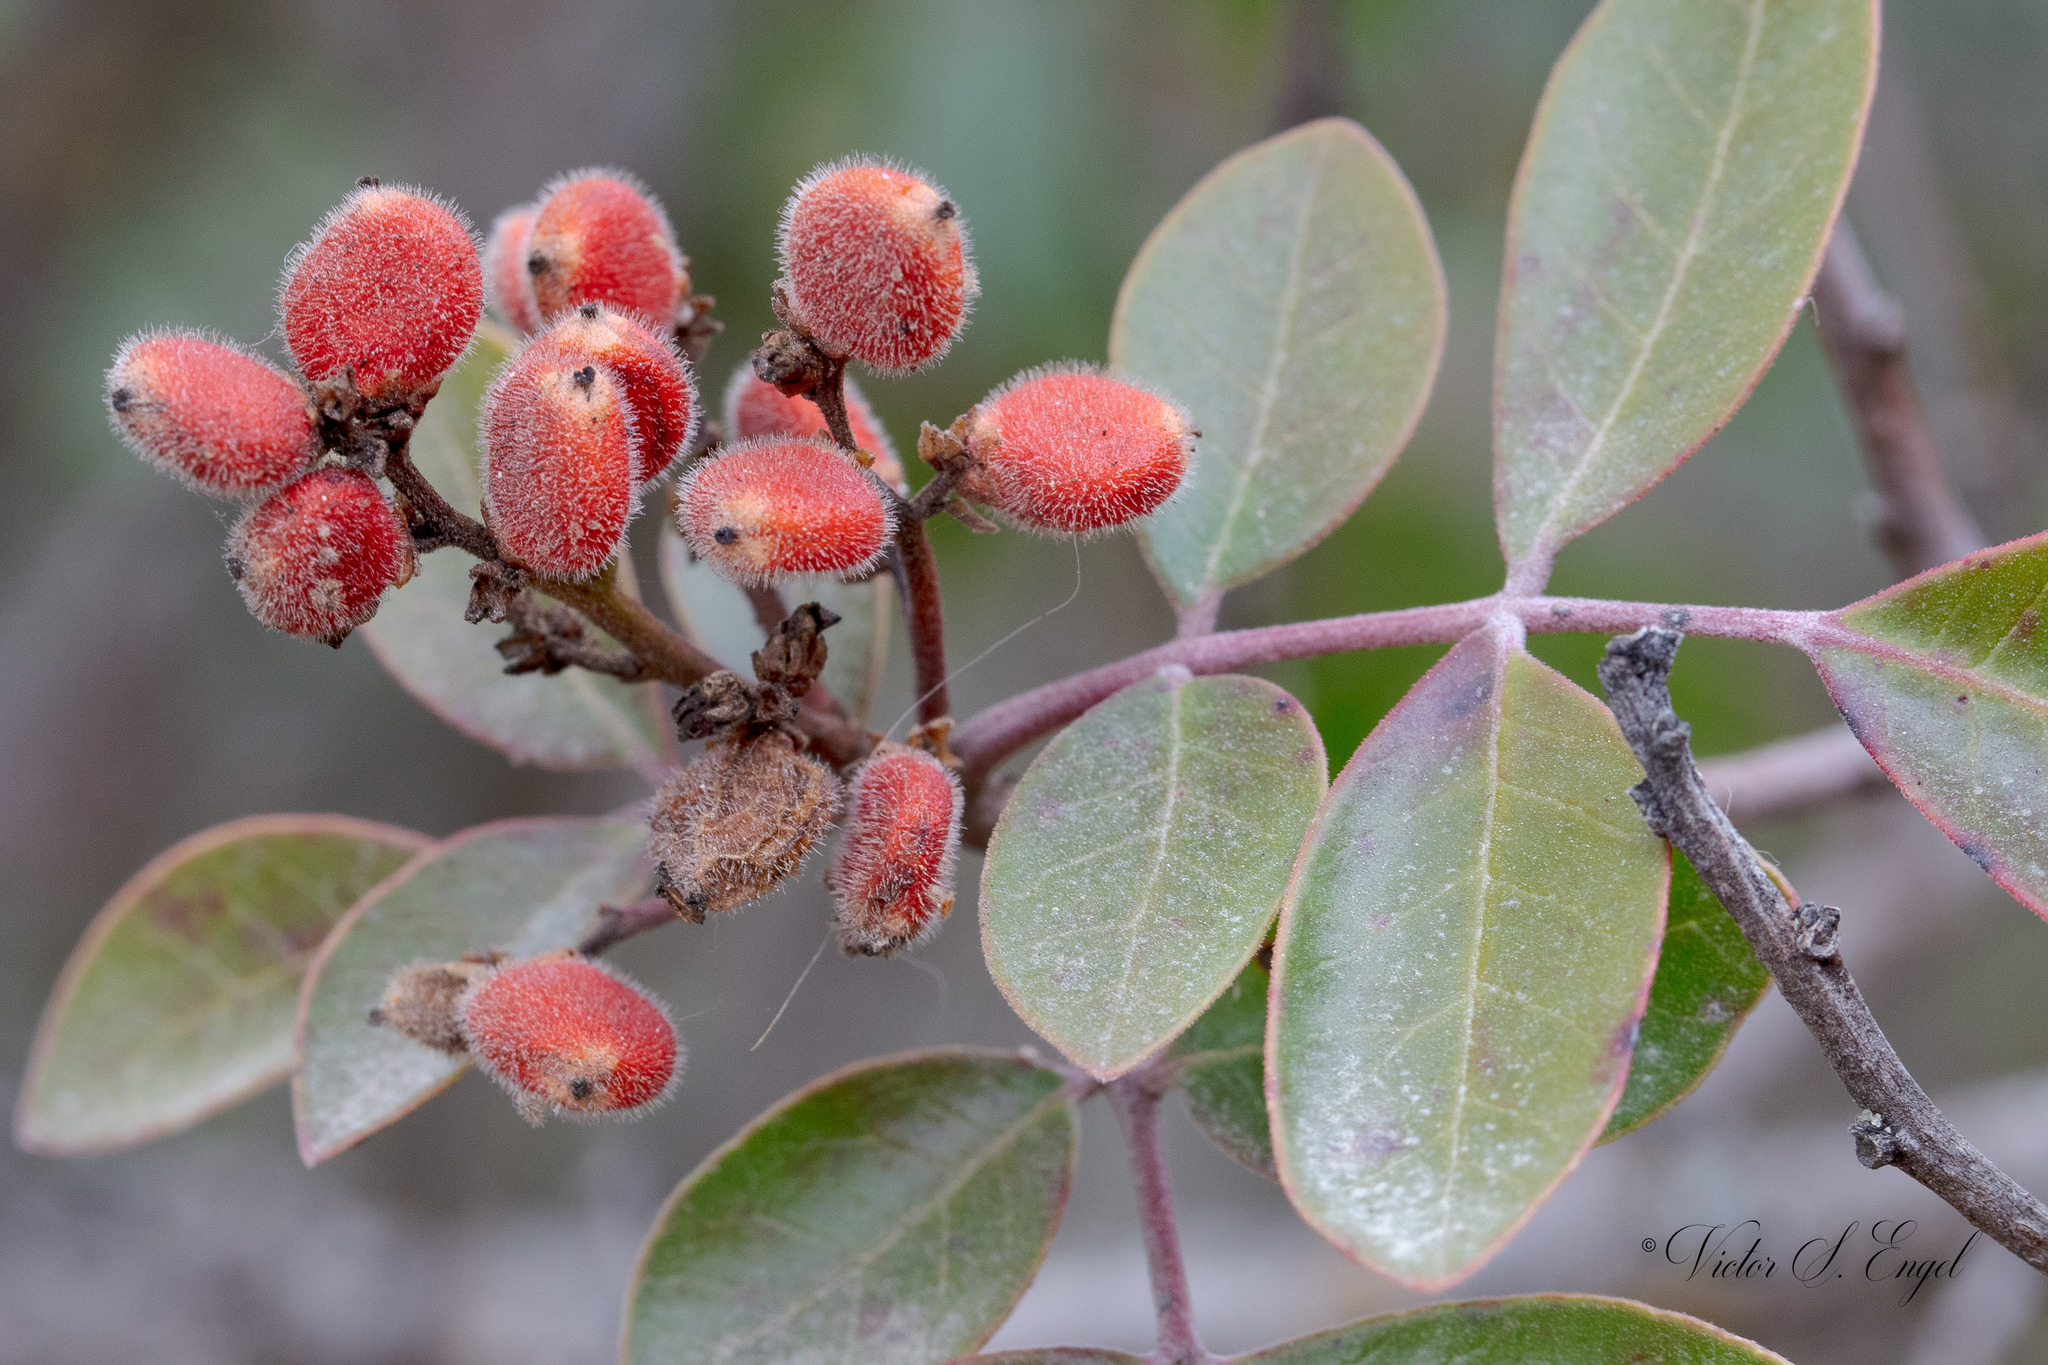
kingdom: Plantae
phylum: Tracheophyta
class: Magnoliopsida
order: Sapindales
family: Anacardiaceae
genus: Rhus
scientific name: Rhus virens
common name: Evergreen sumac
